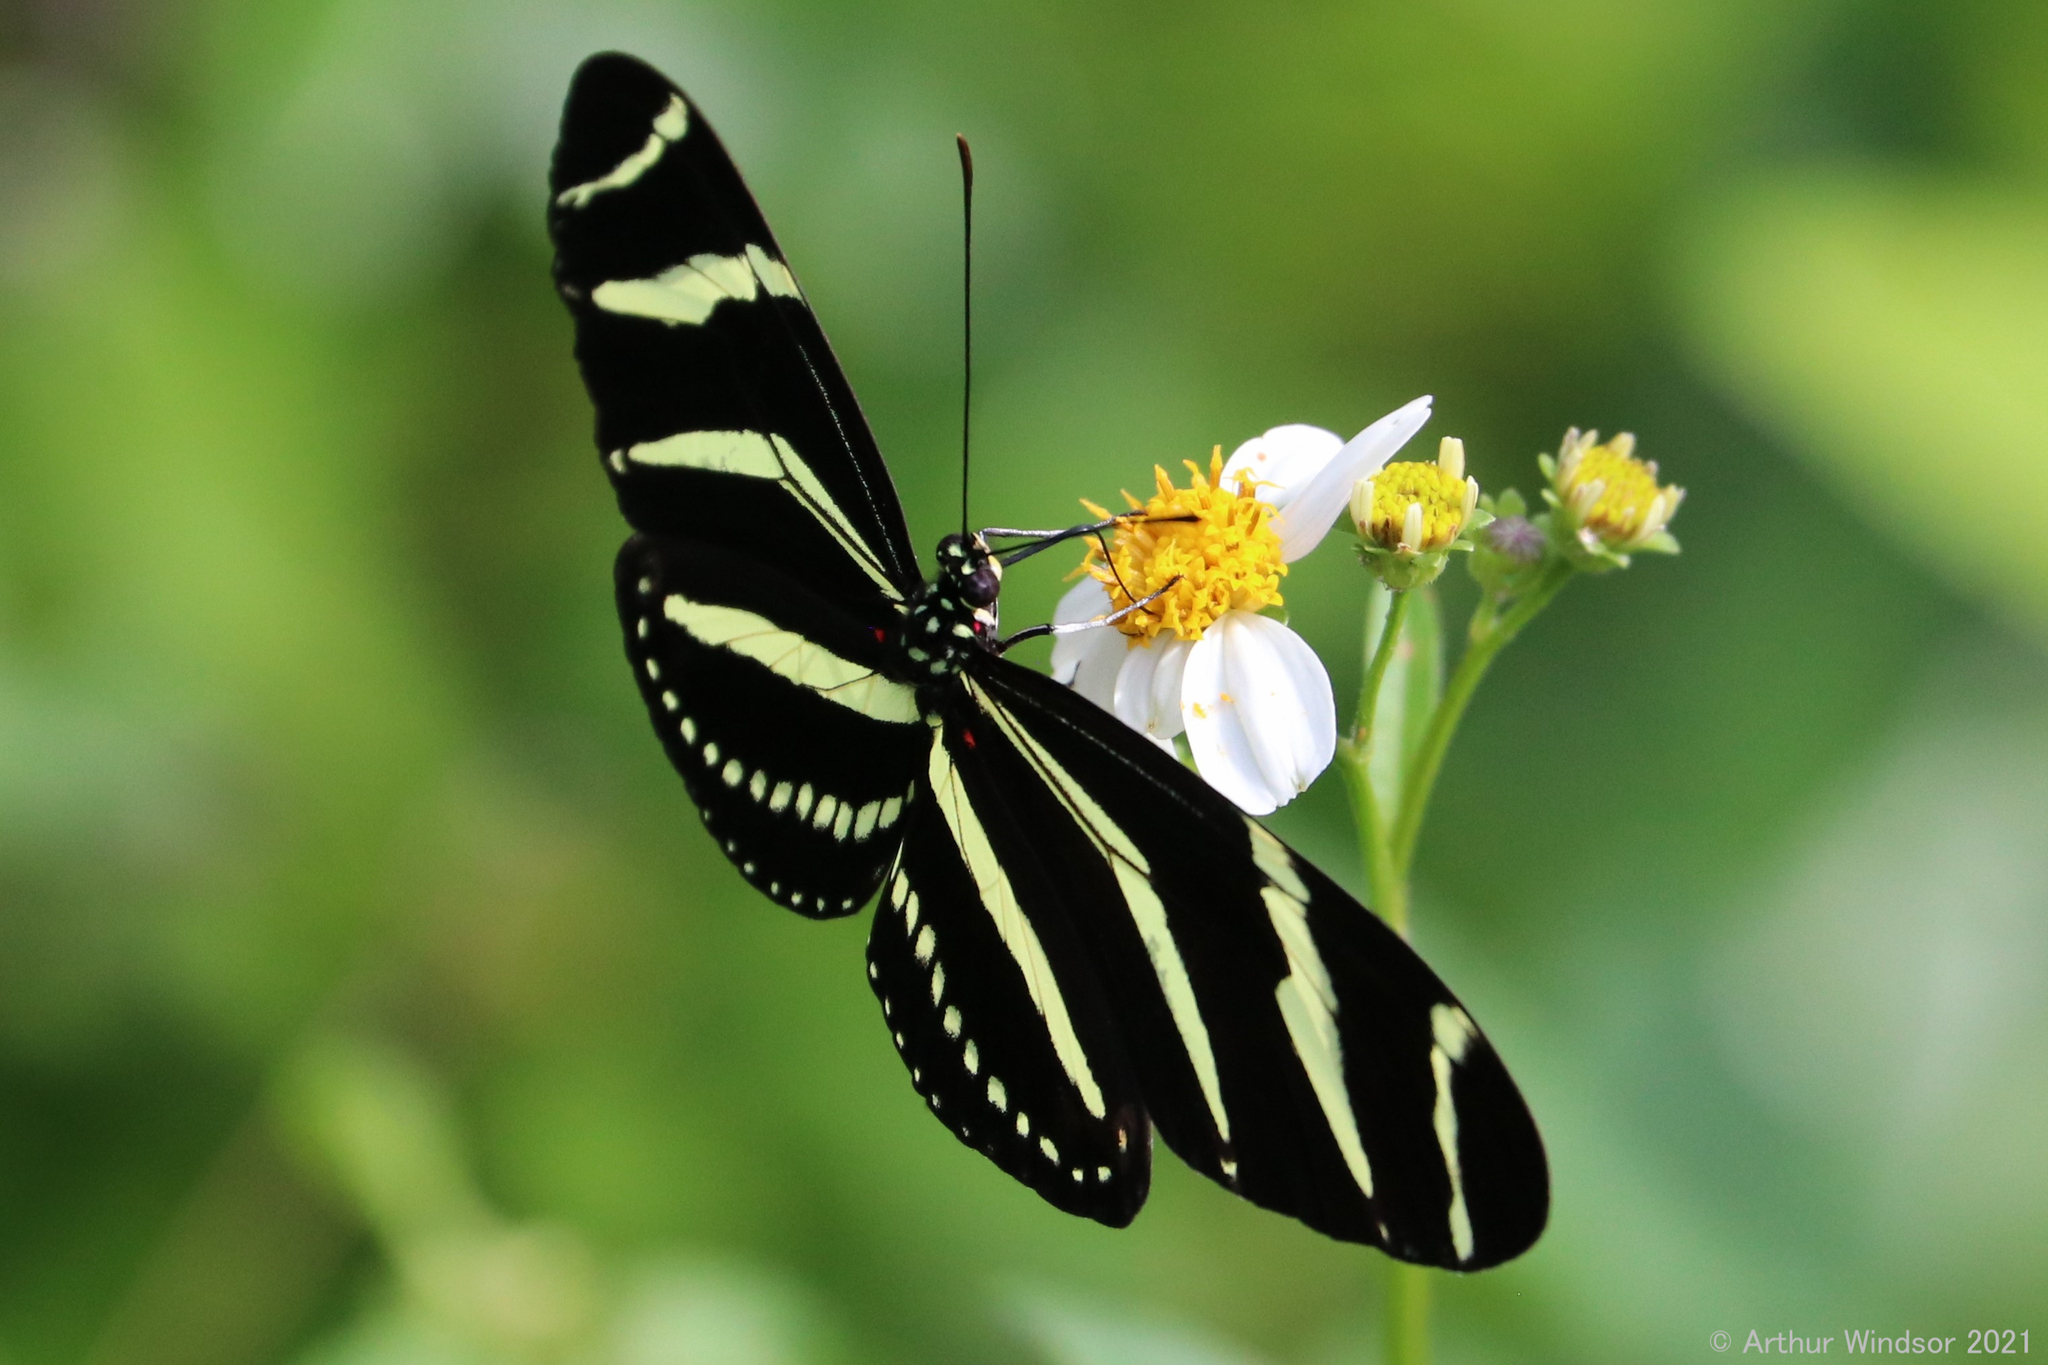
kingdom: Animalia
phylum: Arthropoda
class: Insecta
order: Lepidoptera
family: Nymphalidae
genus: Heliconius
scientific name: Heliconius charithonia
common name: Zebra long wing
